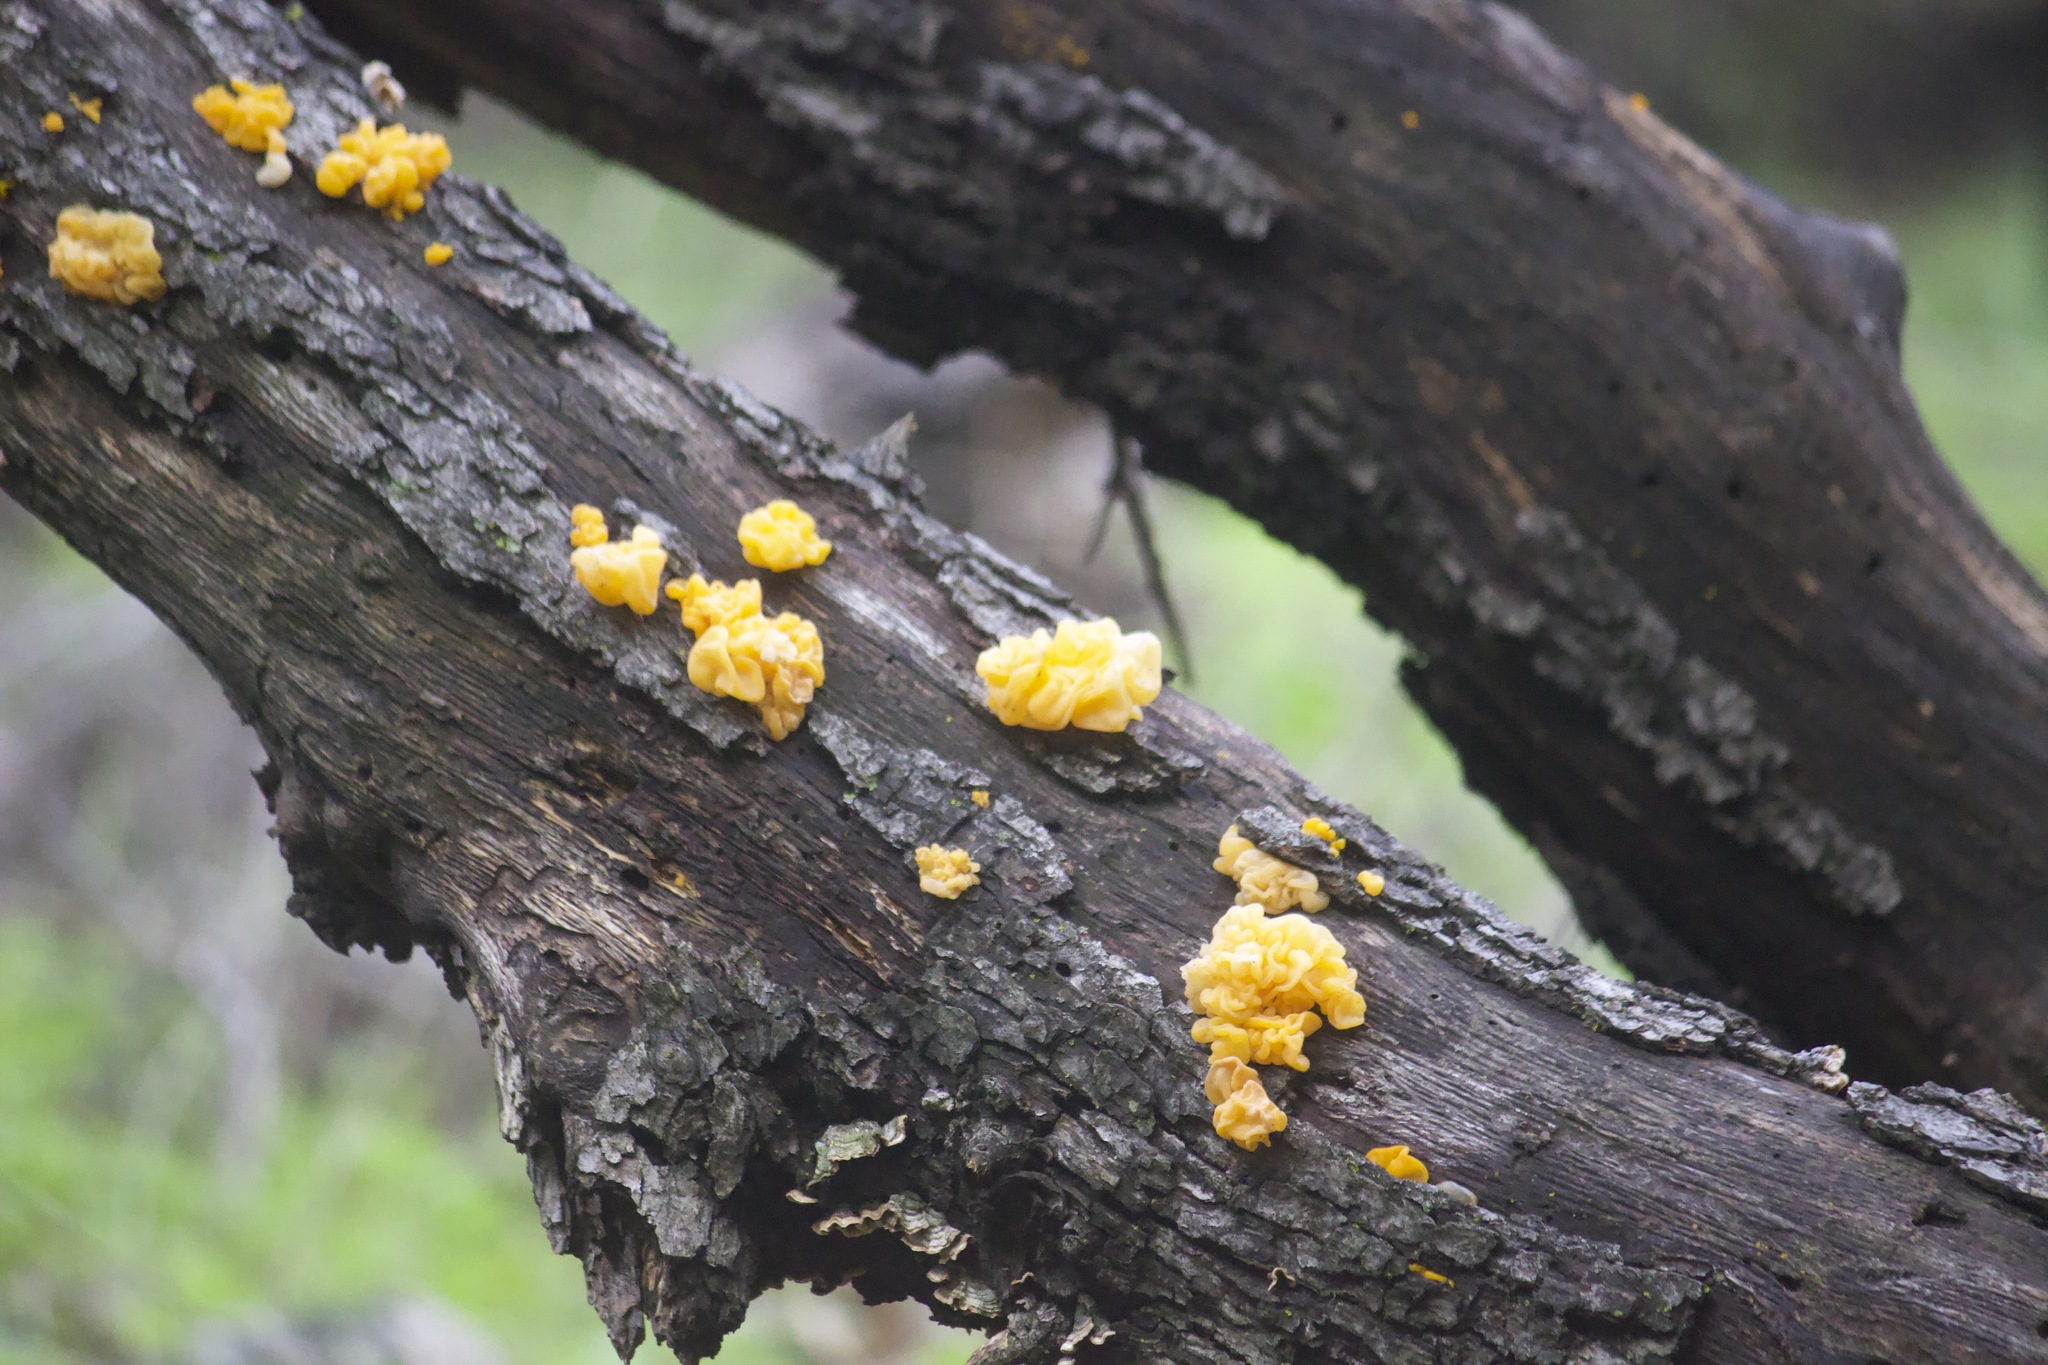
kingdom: Fungi
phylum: Basidiomycota
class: Tremellomycetes
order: Tremellales
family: Naemateliaceae
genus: Naematelia
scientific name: Naematelia aurantia
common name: Golden ear
